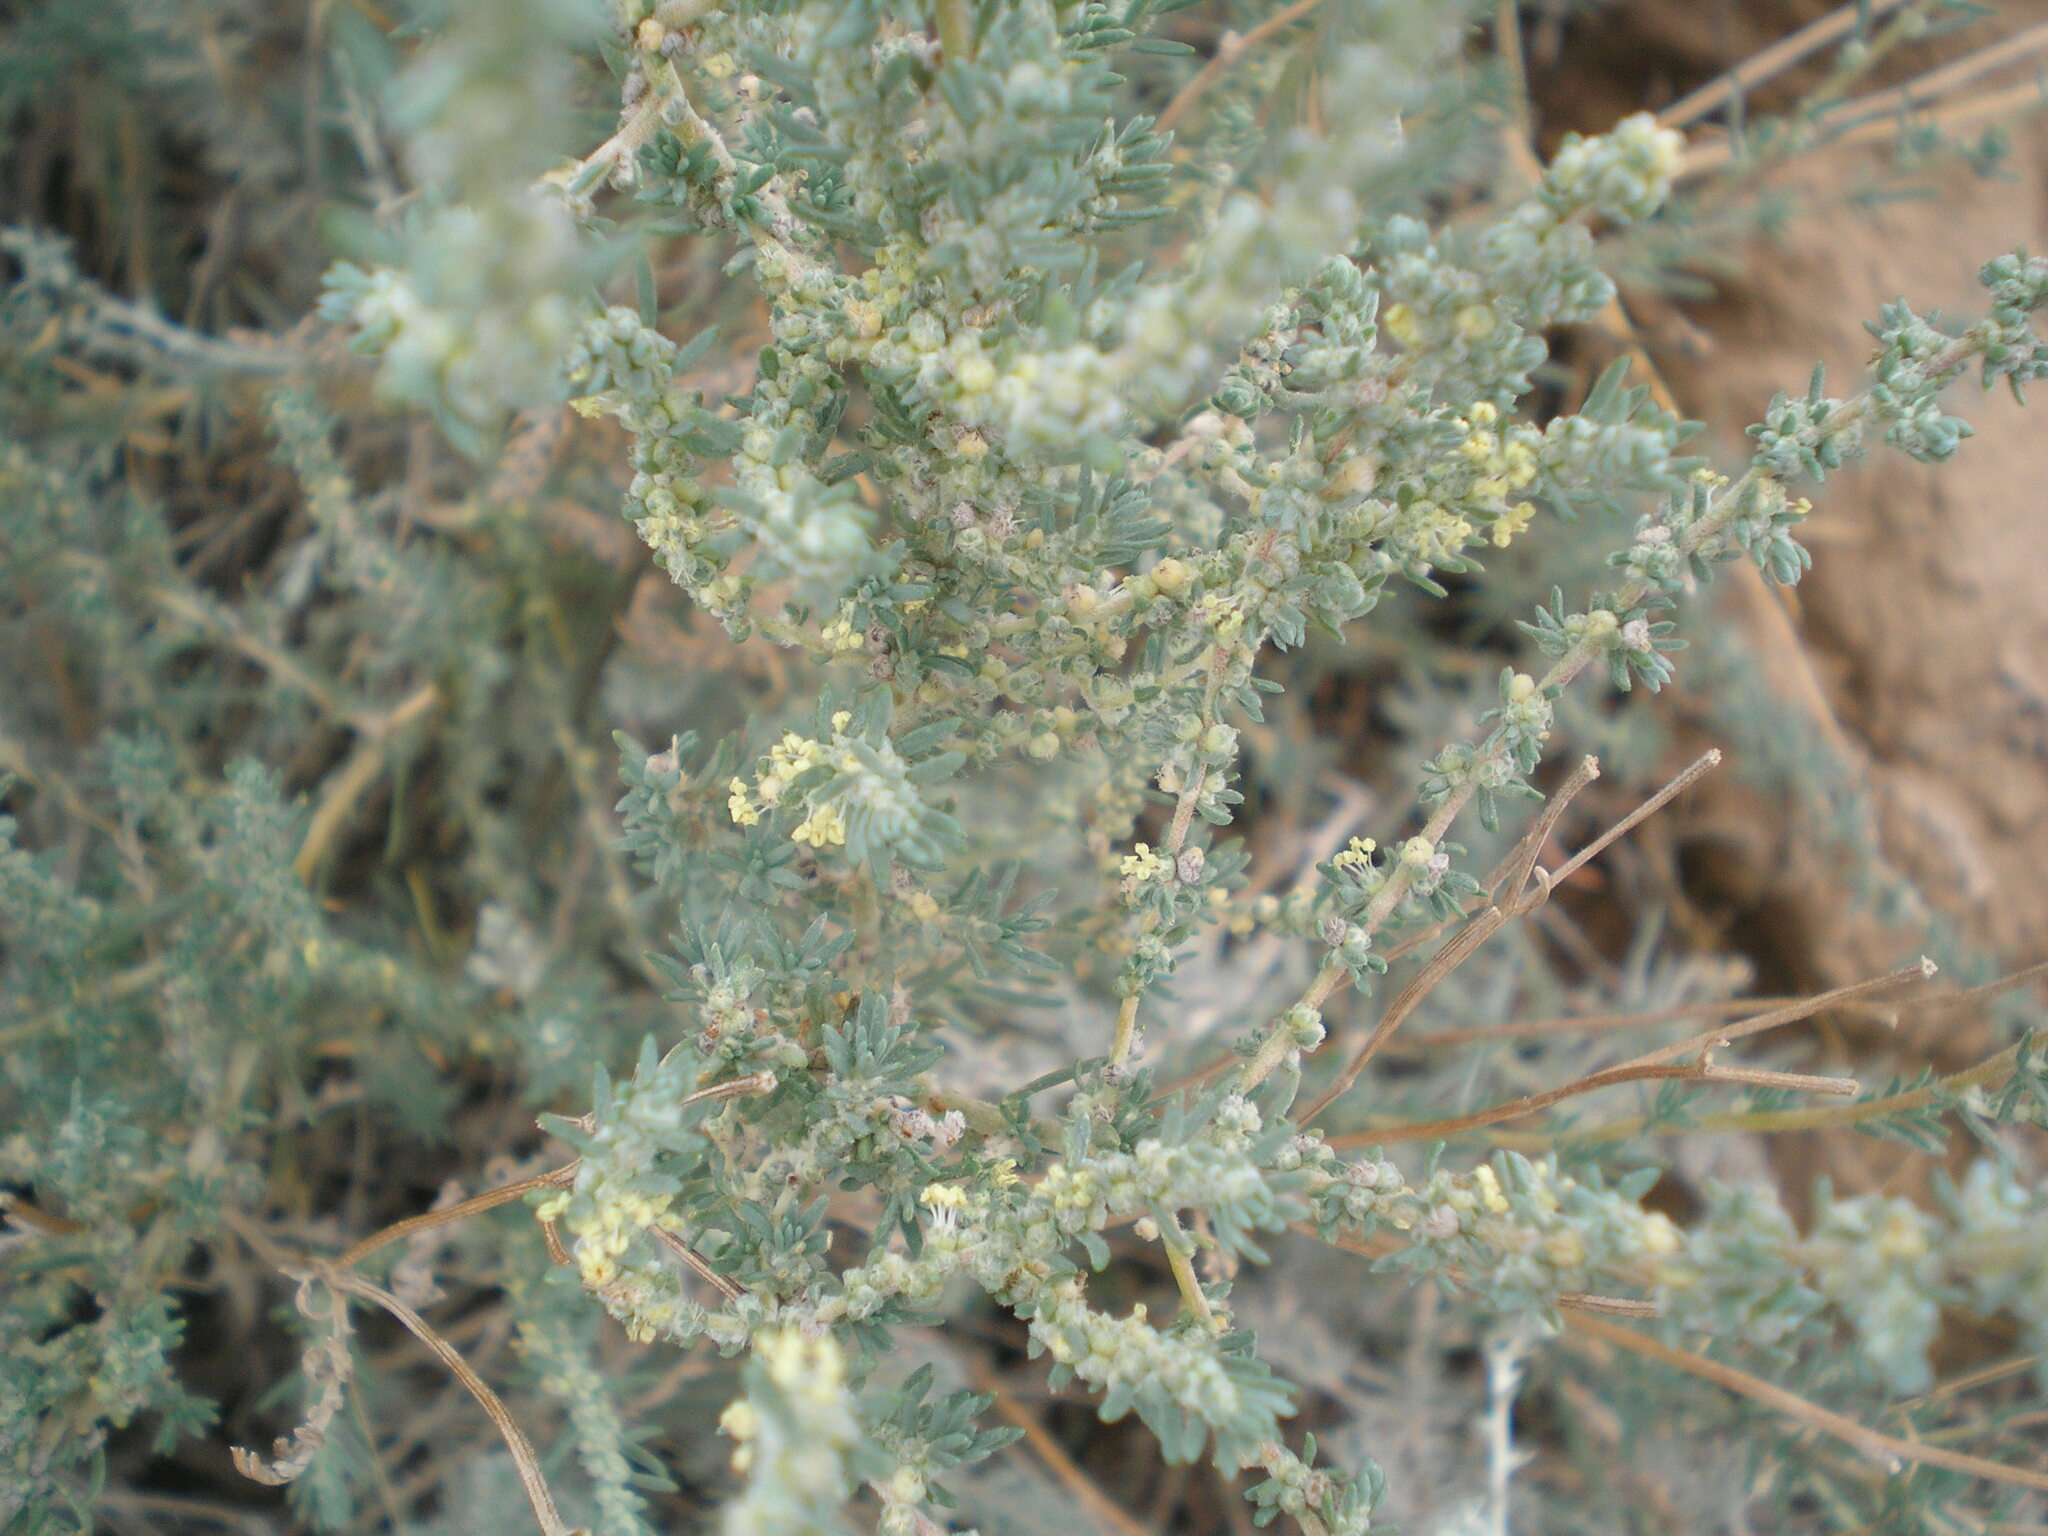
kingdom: Plantae
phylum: Tracheophyta
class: Magnoliopsida
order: Caryophyllales
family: Amaranthaceae
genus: Bassia
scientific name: Bassia prostrata
